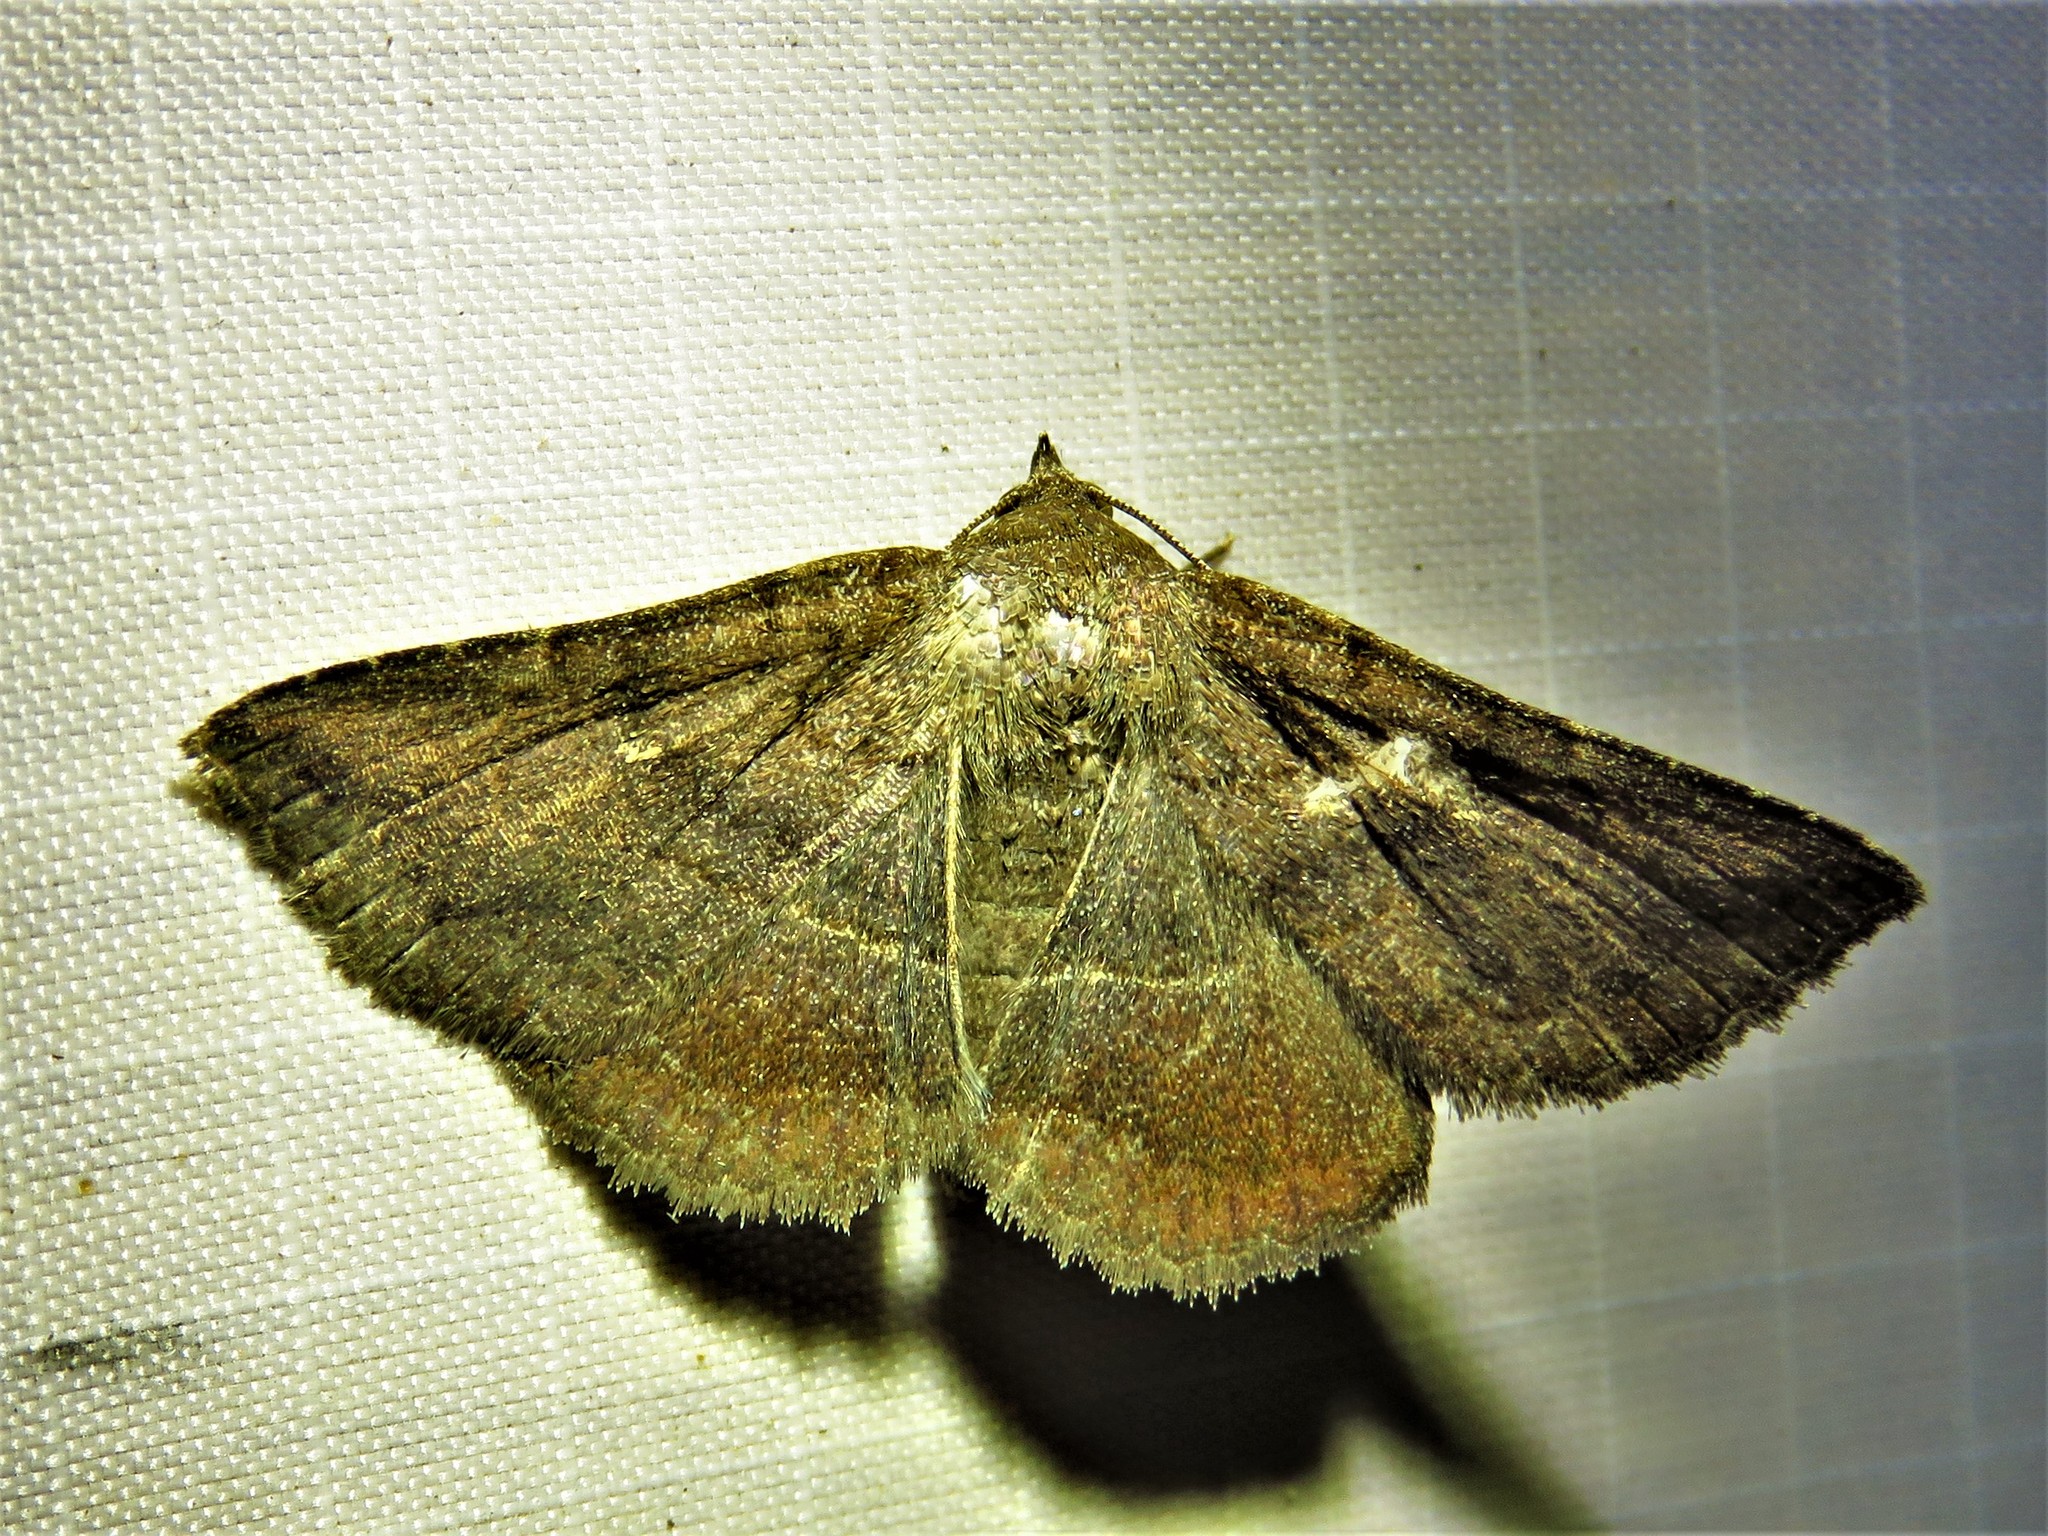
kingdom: Animalia
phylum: Arthropoda
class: Insecta
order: Lepidoptera
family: Erebidae
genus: Lesmone
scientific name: Lesmone detrahens
